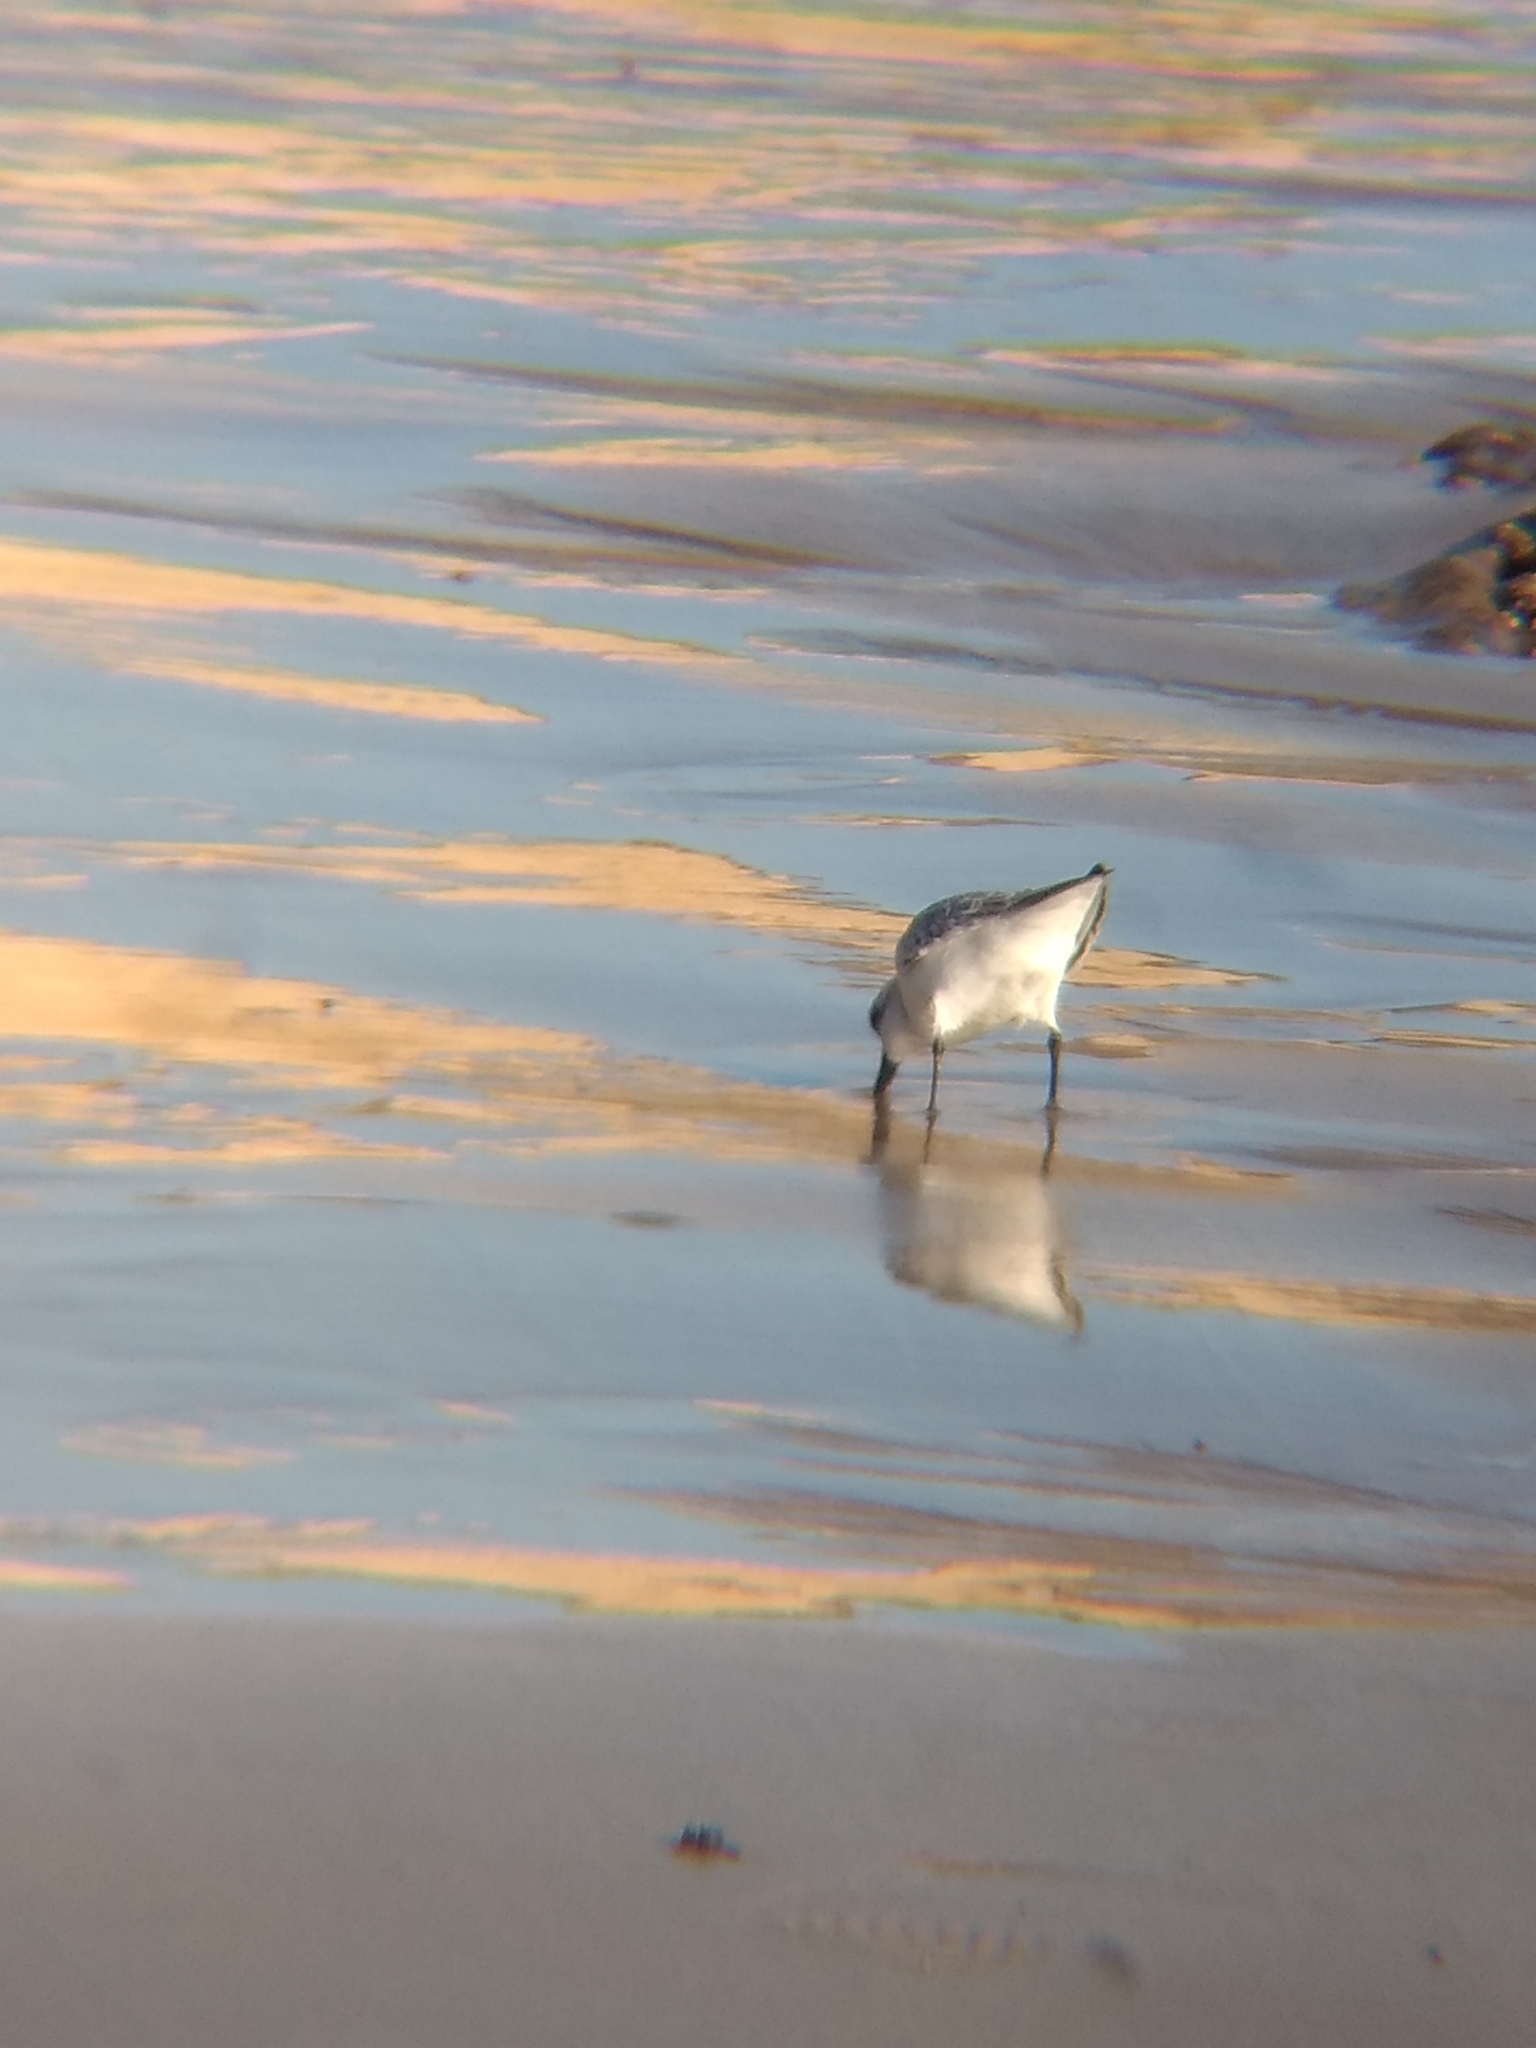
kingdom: Animalia
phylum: Chordata
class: Aves
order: Charadriiformes
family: Scolopacidae
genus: Calidris
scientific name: Calidris alba
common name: Sanderling
